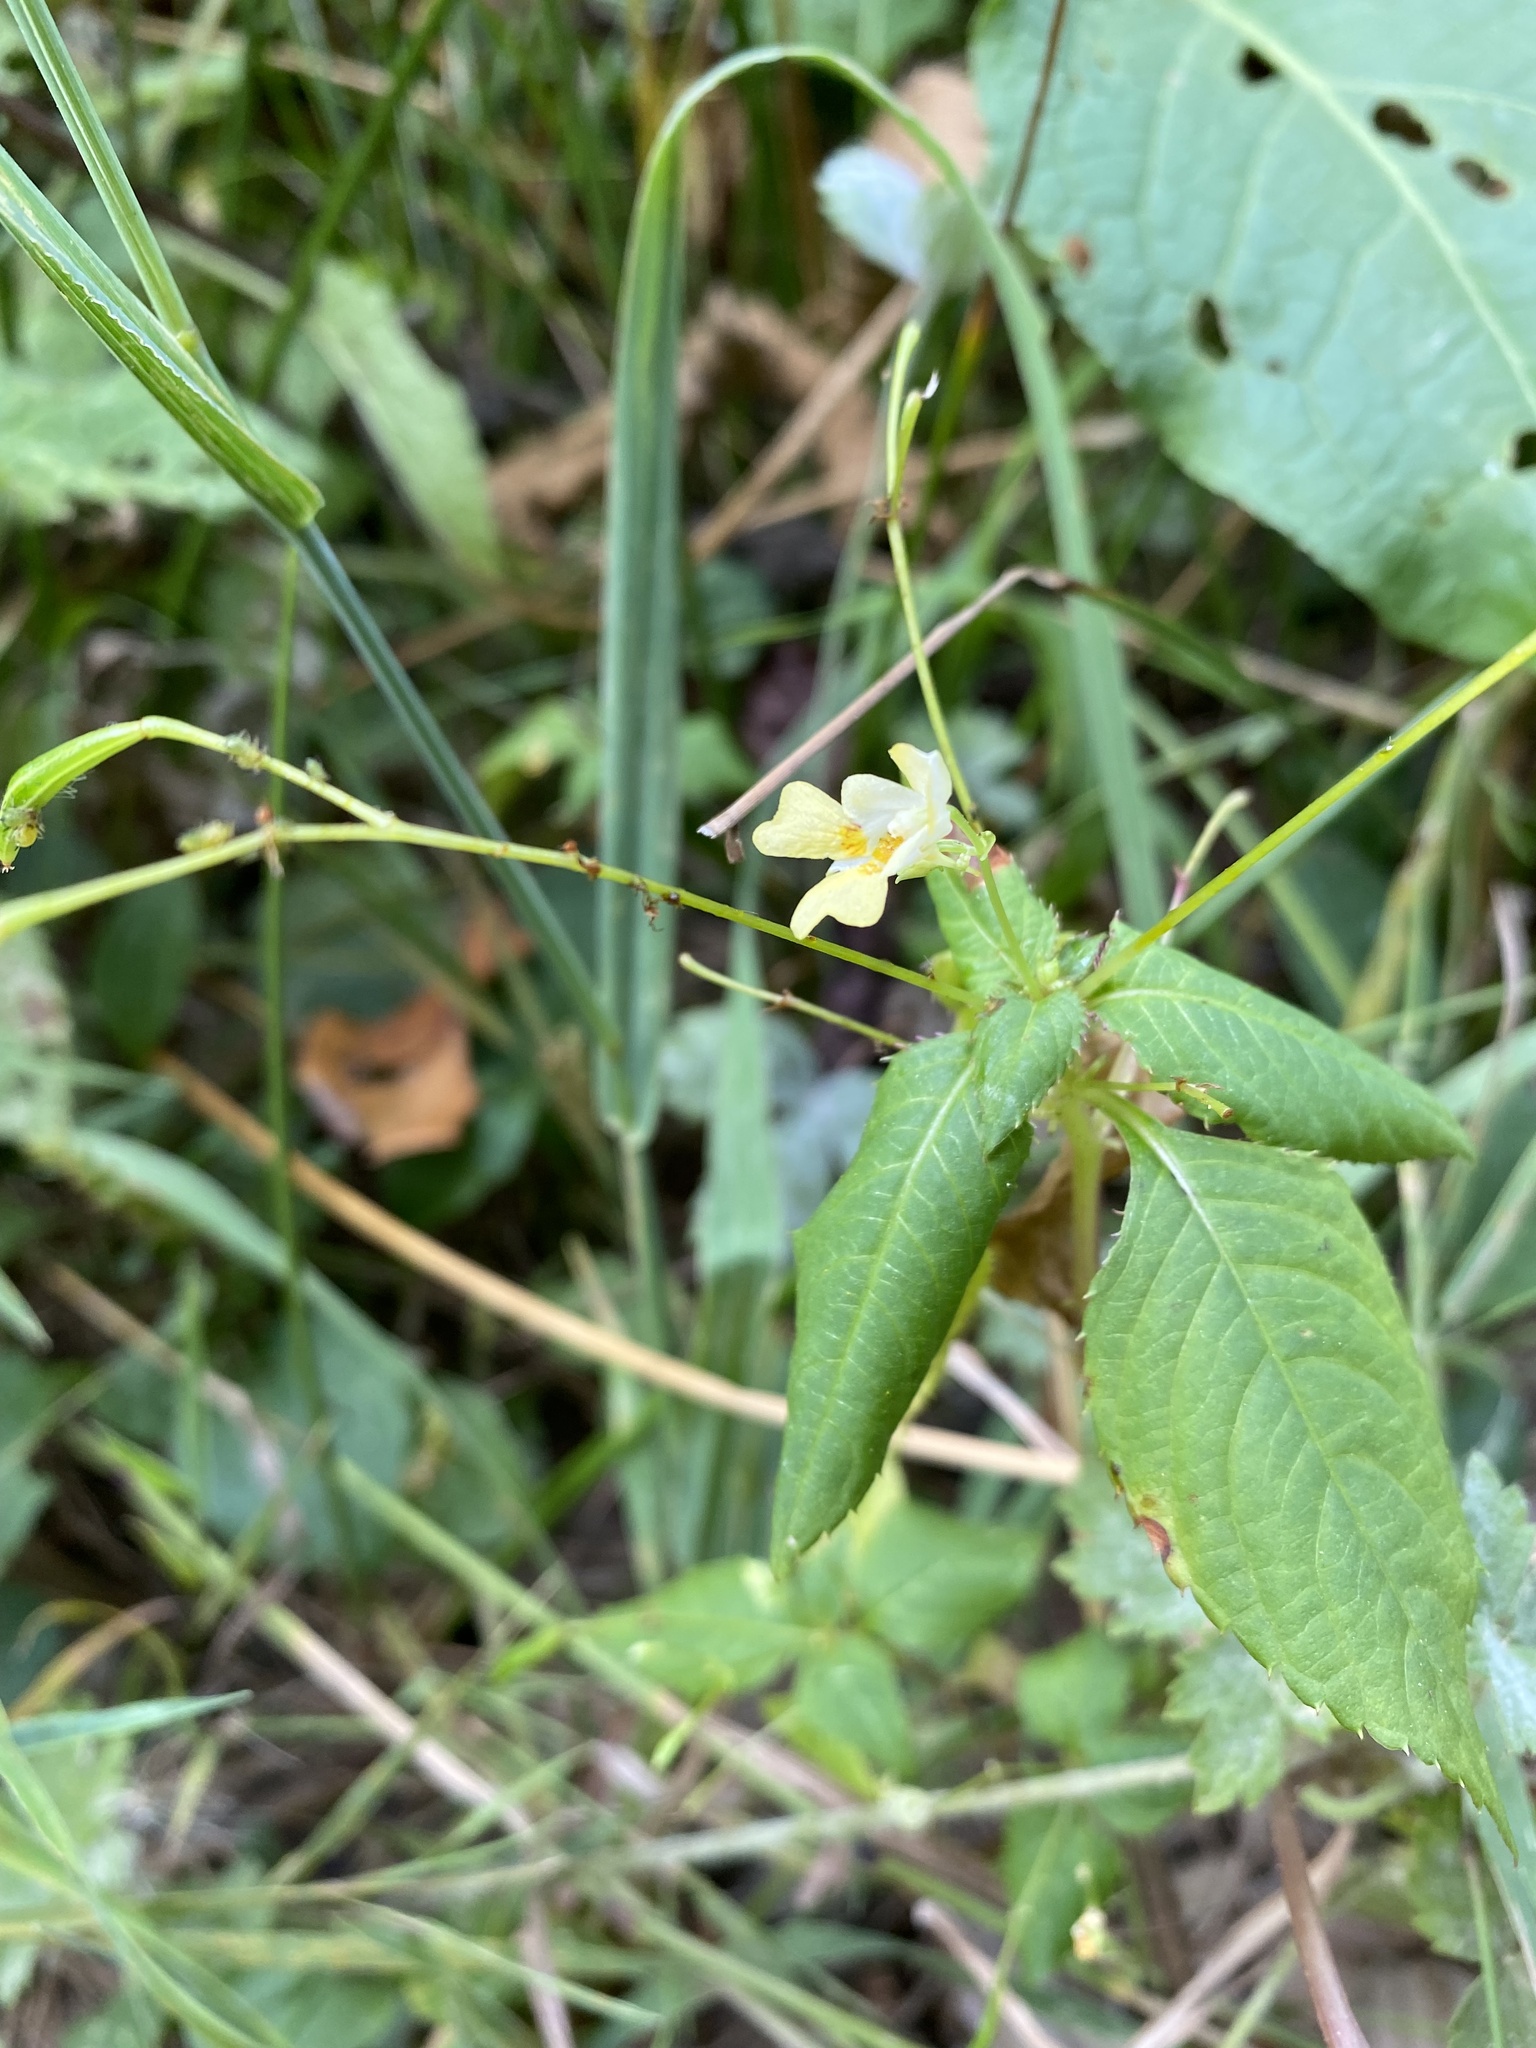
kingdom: Plantae
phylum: Tracheophyta
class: Magnoliopsida
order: Ericales
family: Balsaminaceae
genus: Impatiens
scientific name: Impatiens parviflora
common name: Small balsam
